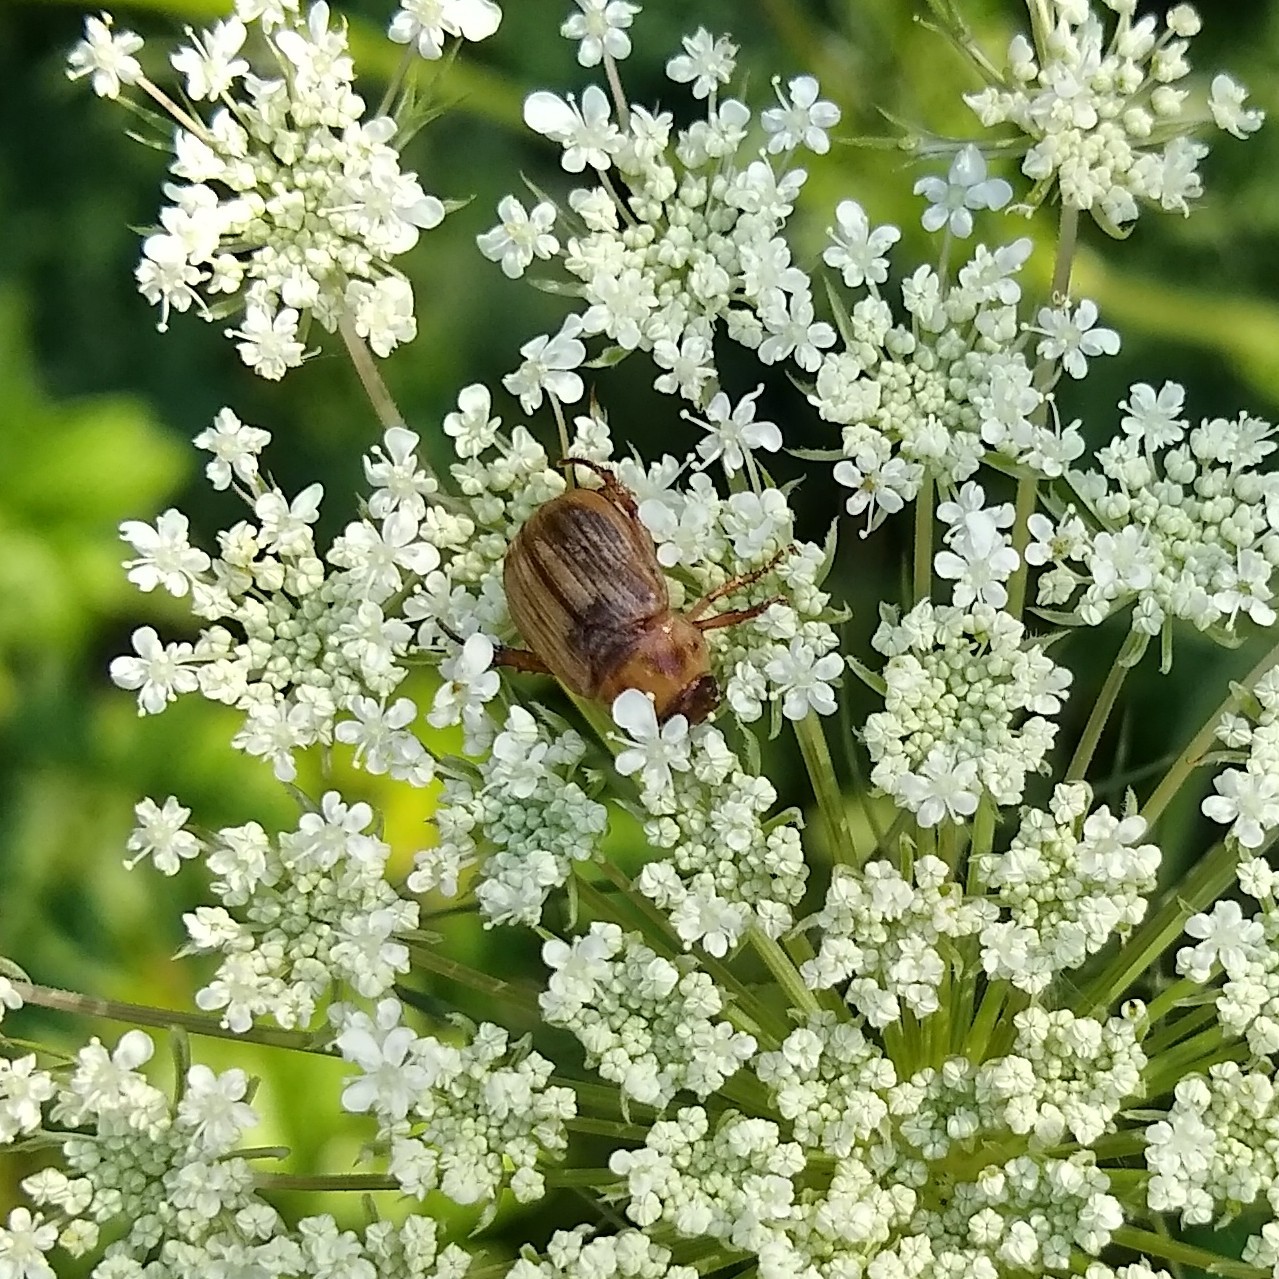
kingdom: Animalia
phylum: Arthropoda
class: Insecta
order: Coleoptera
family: Scarabaeidae
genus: Exomala
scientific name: Exomala orientalis
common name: Oriental beetle
